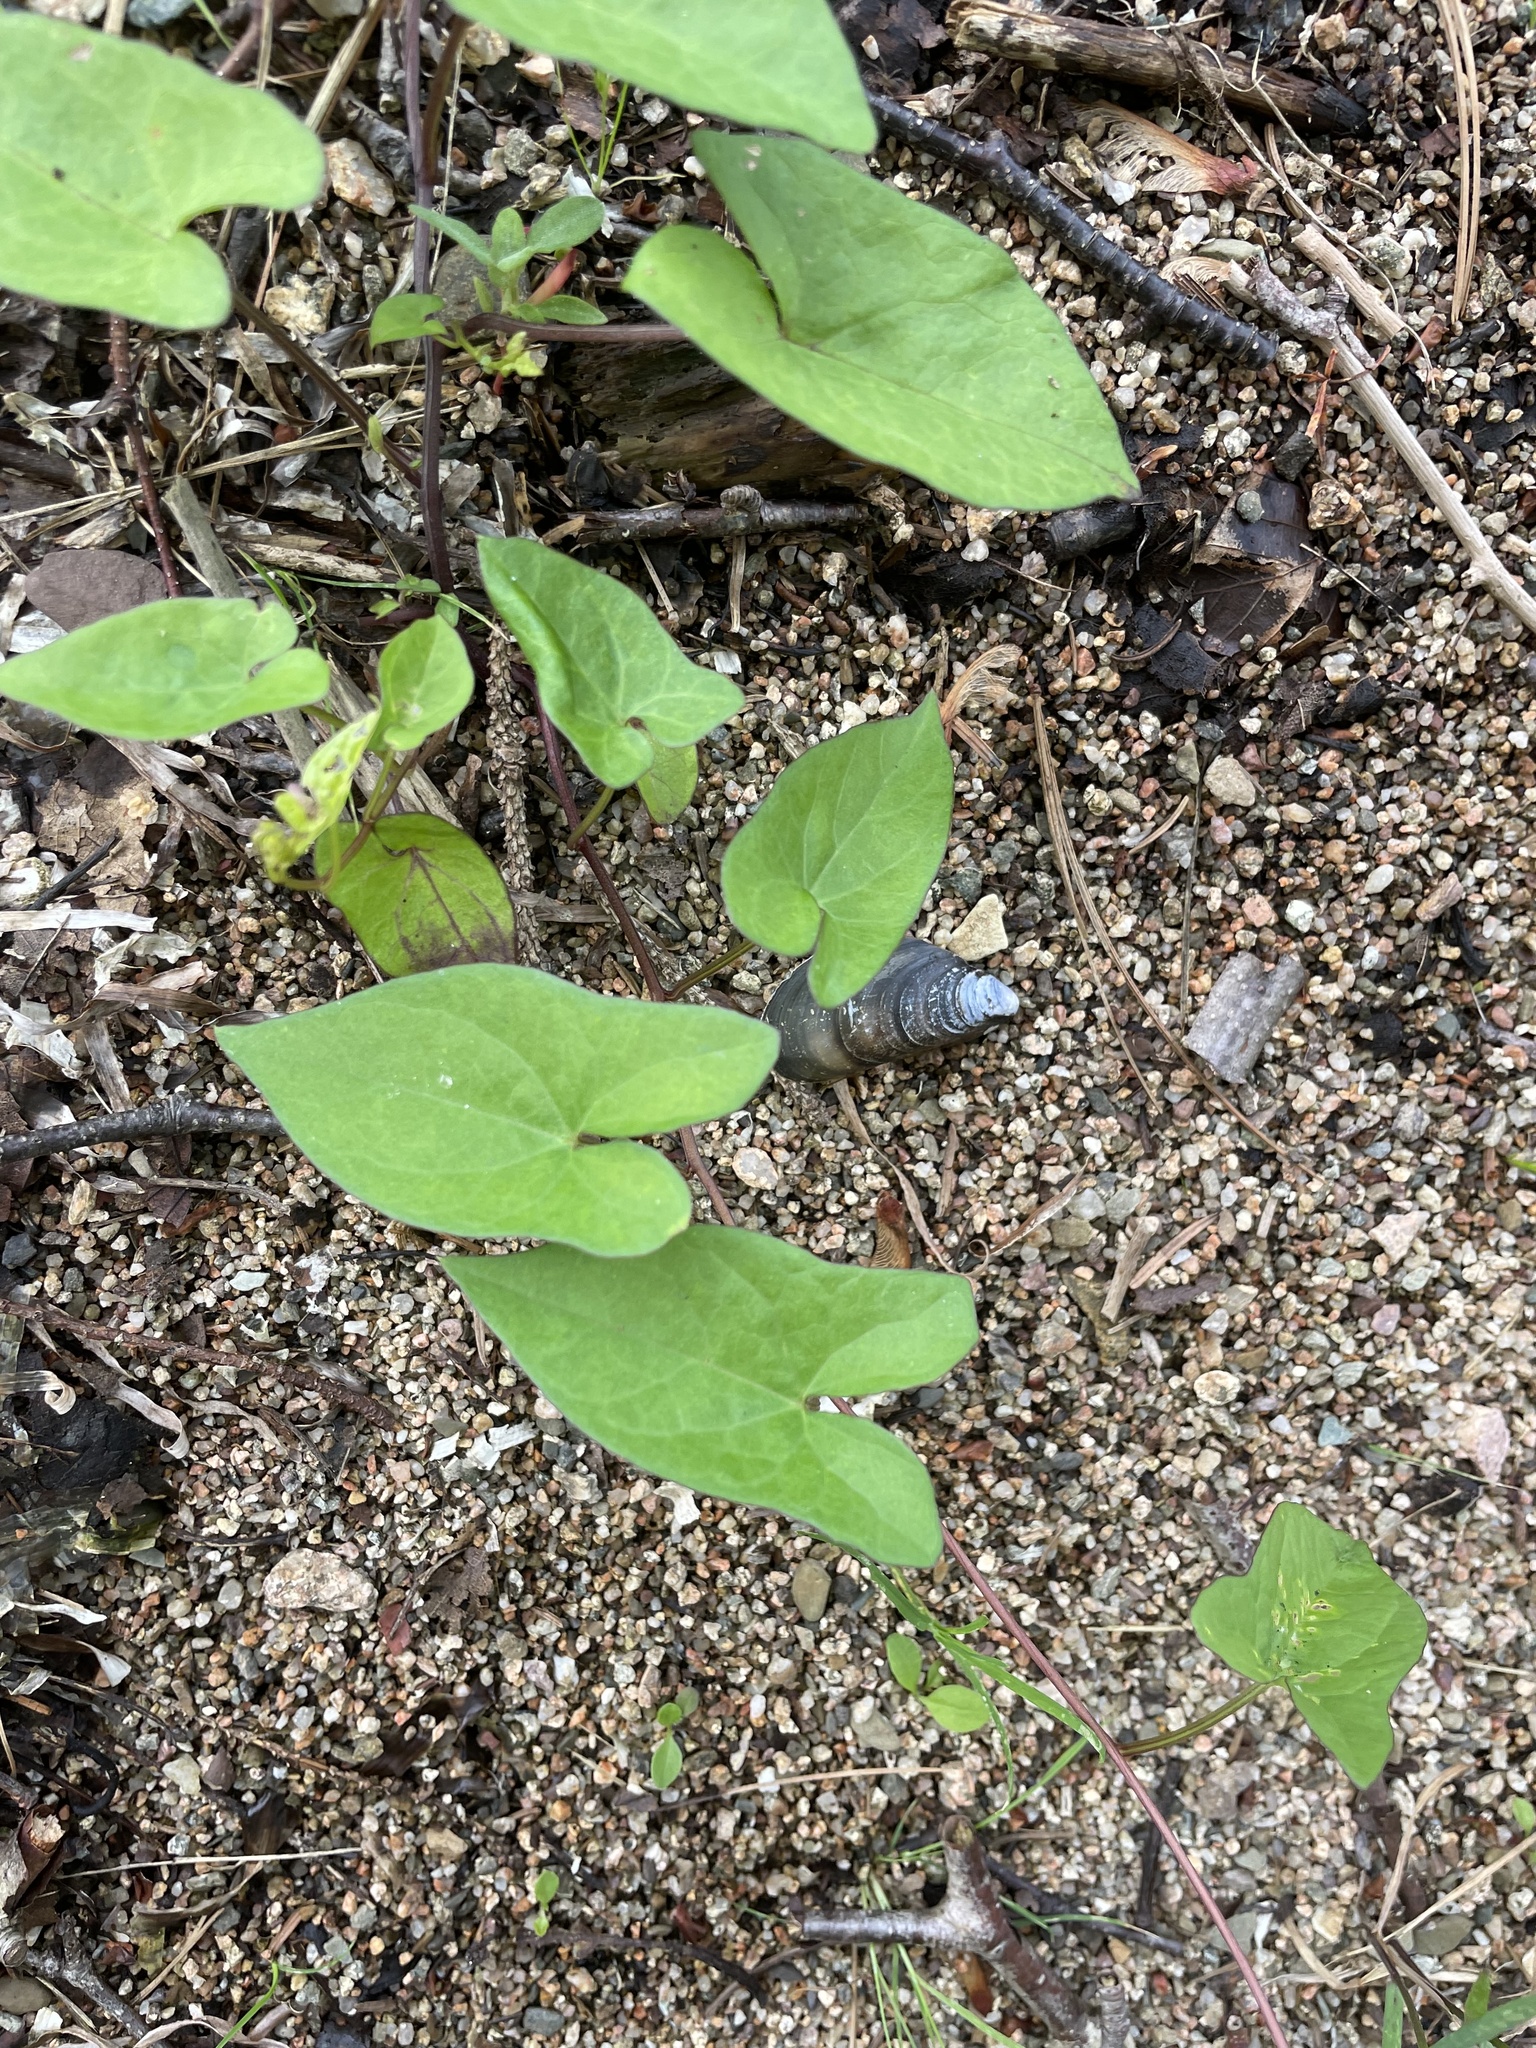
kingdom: Plantae
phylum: Tracheophyta
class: Magnoliopsida
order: Solanales
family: Convolvulaceae
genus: Calystegia
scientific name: Calystegia sepium
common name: Hedge bindweed
